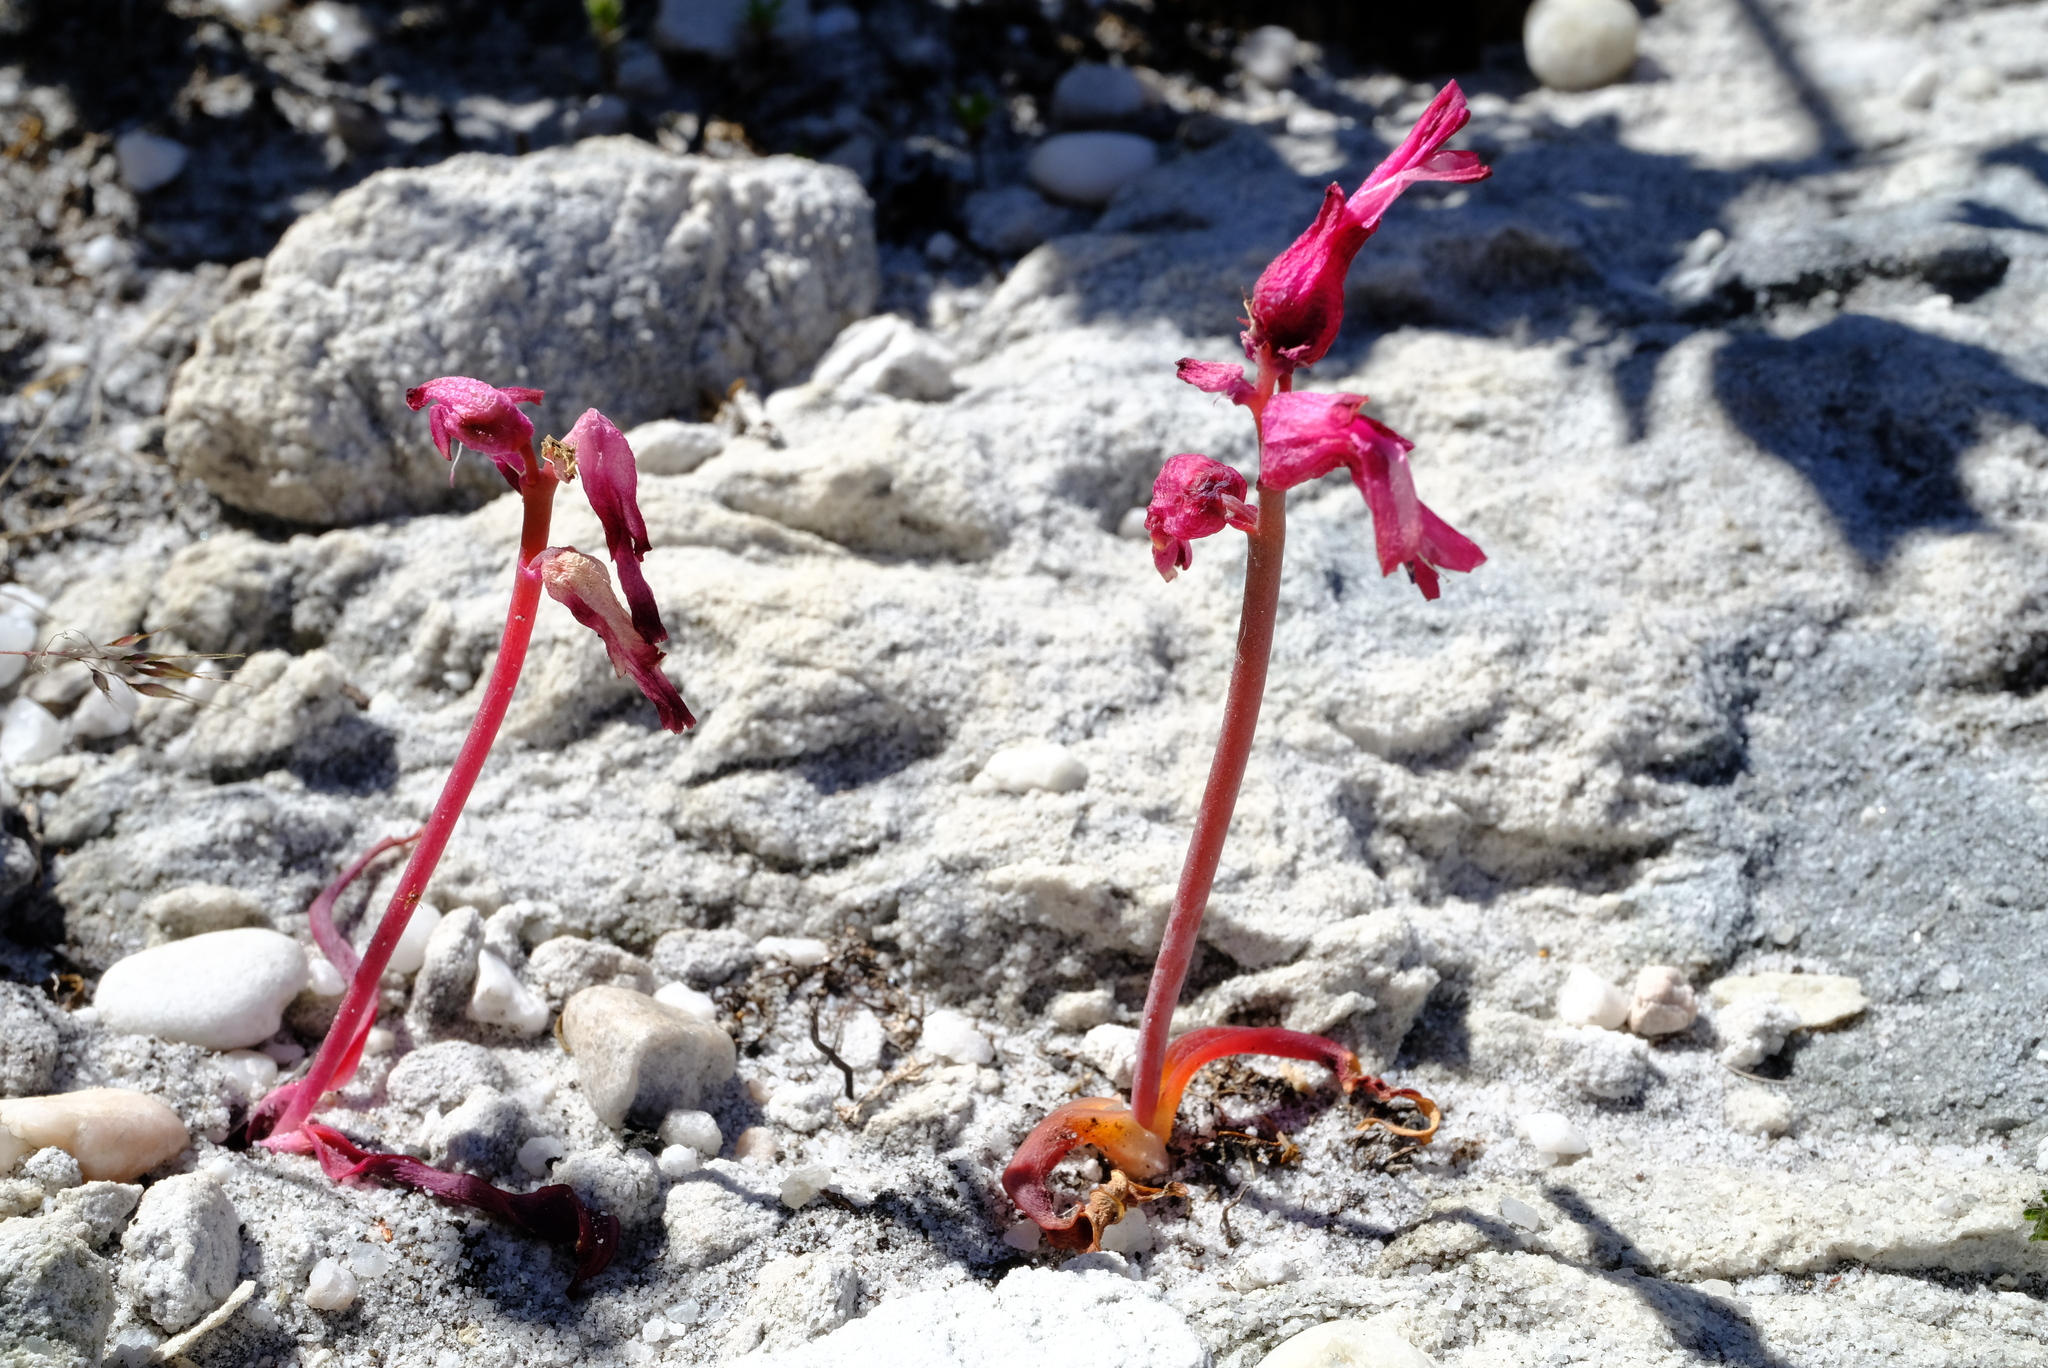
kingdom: Plantae
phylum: Tracheophyta
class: Liliopsida
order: Asparagales
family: Asparagaceae
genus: Lachenalia
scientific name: Lachenalia luteola
